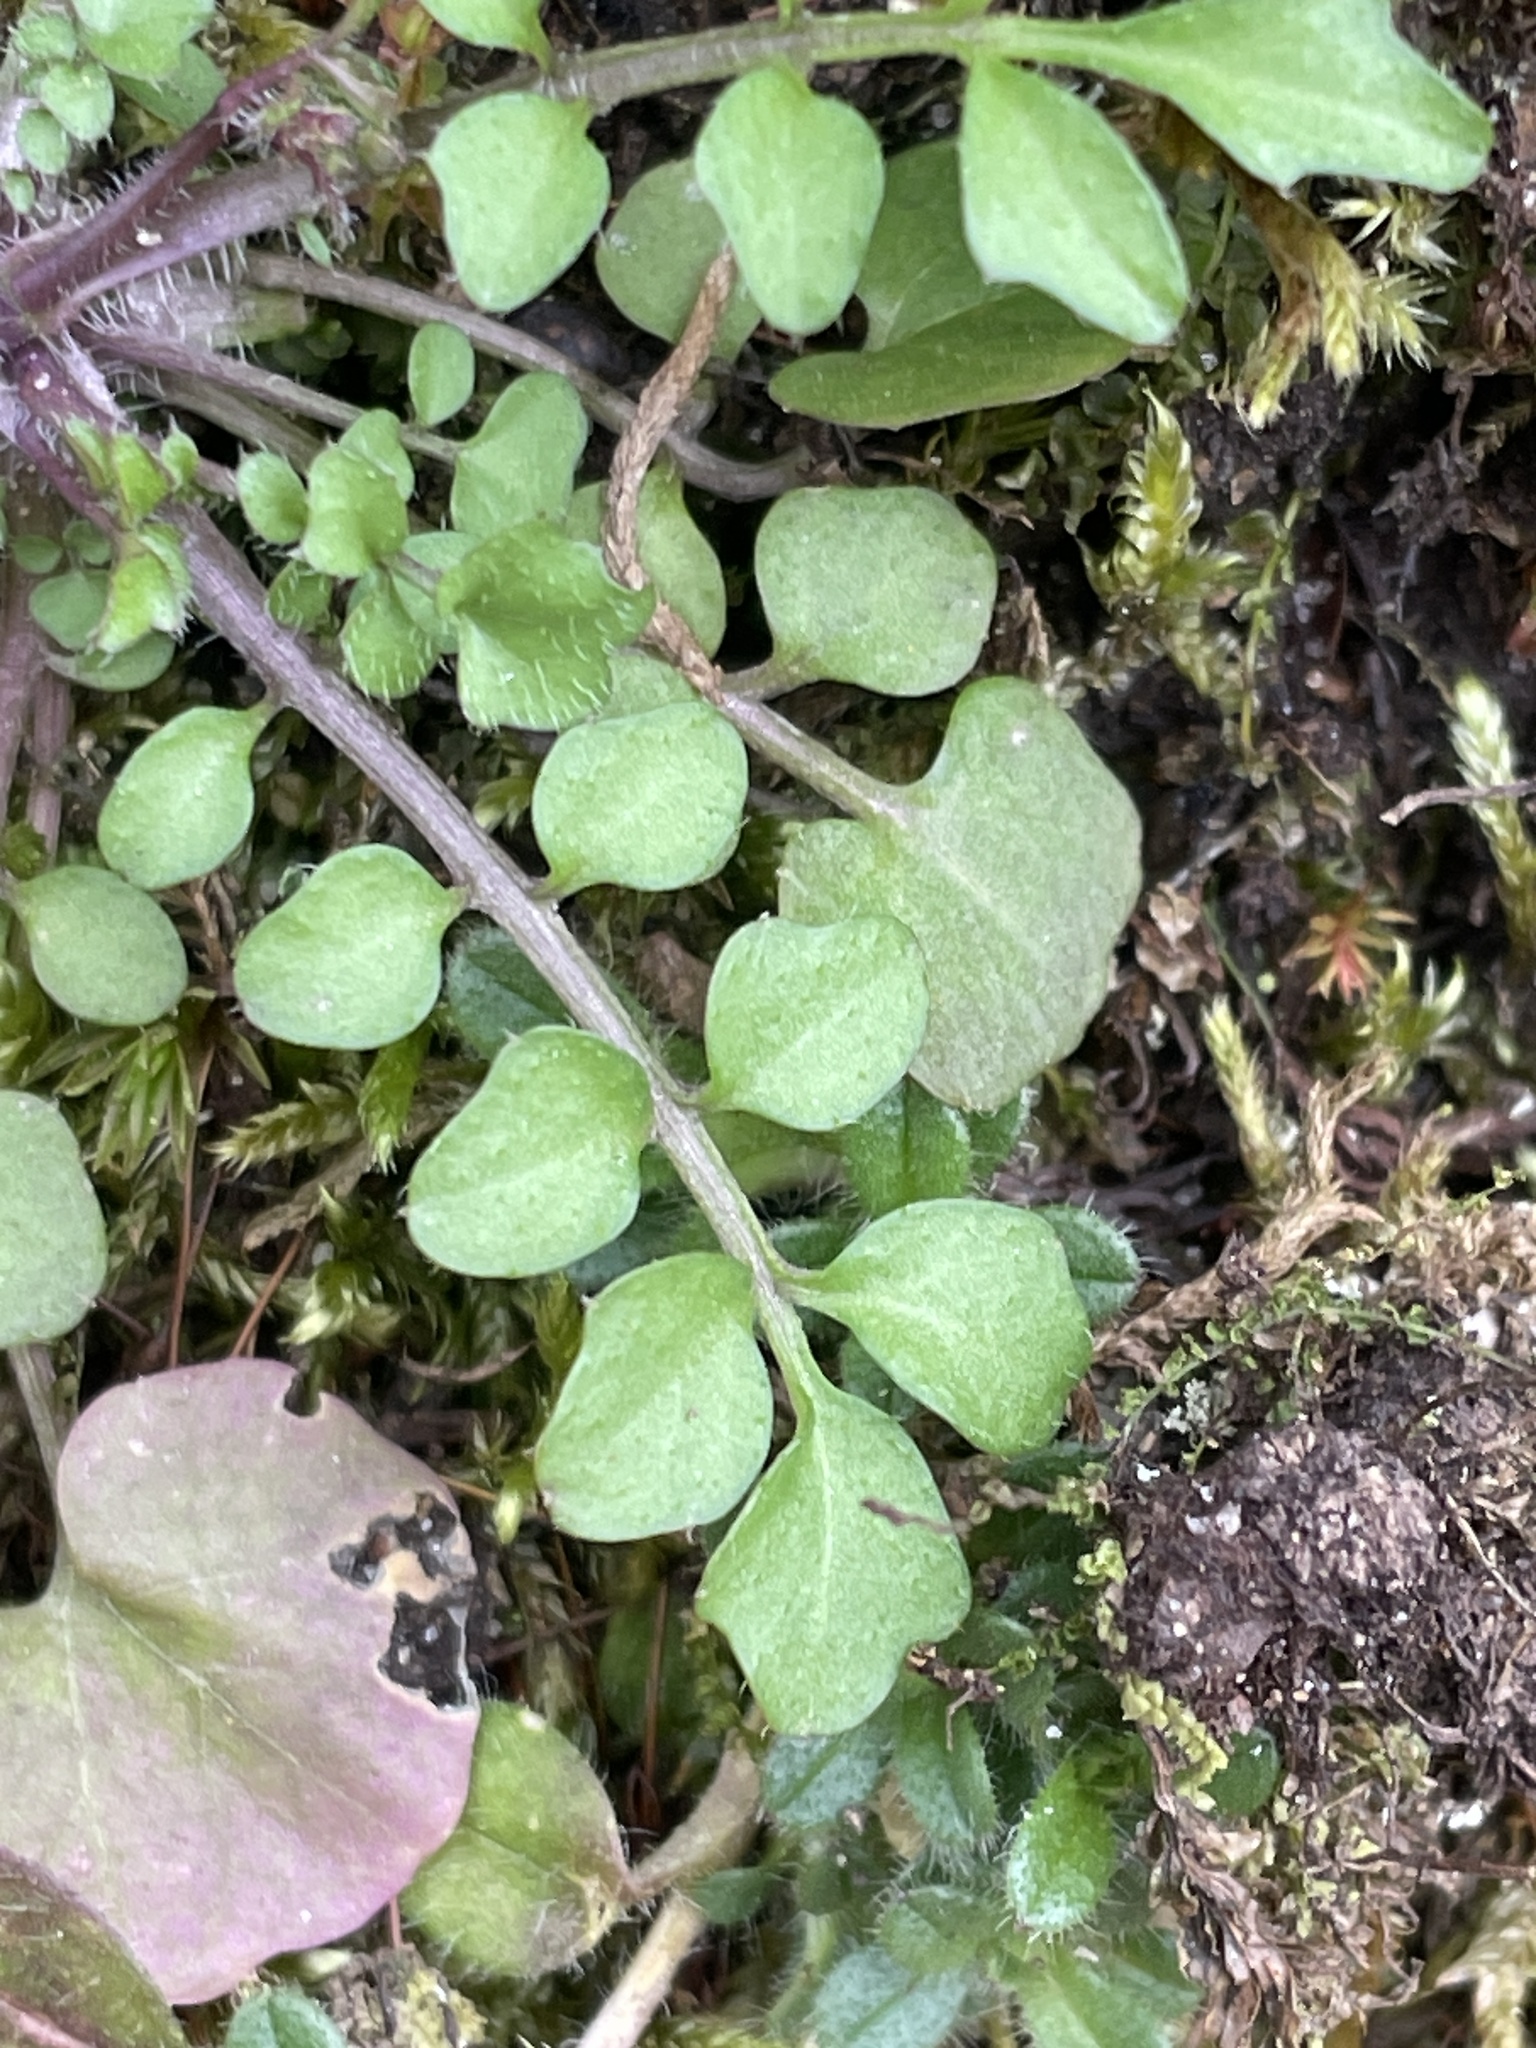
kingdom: Plantae
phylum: Tracheophyta
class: Magnoliopsida
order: Brassicales
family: Brassicaceae
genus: Cardamine
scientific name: Cardamine hirsuta
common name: Hairy bittercress
